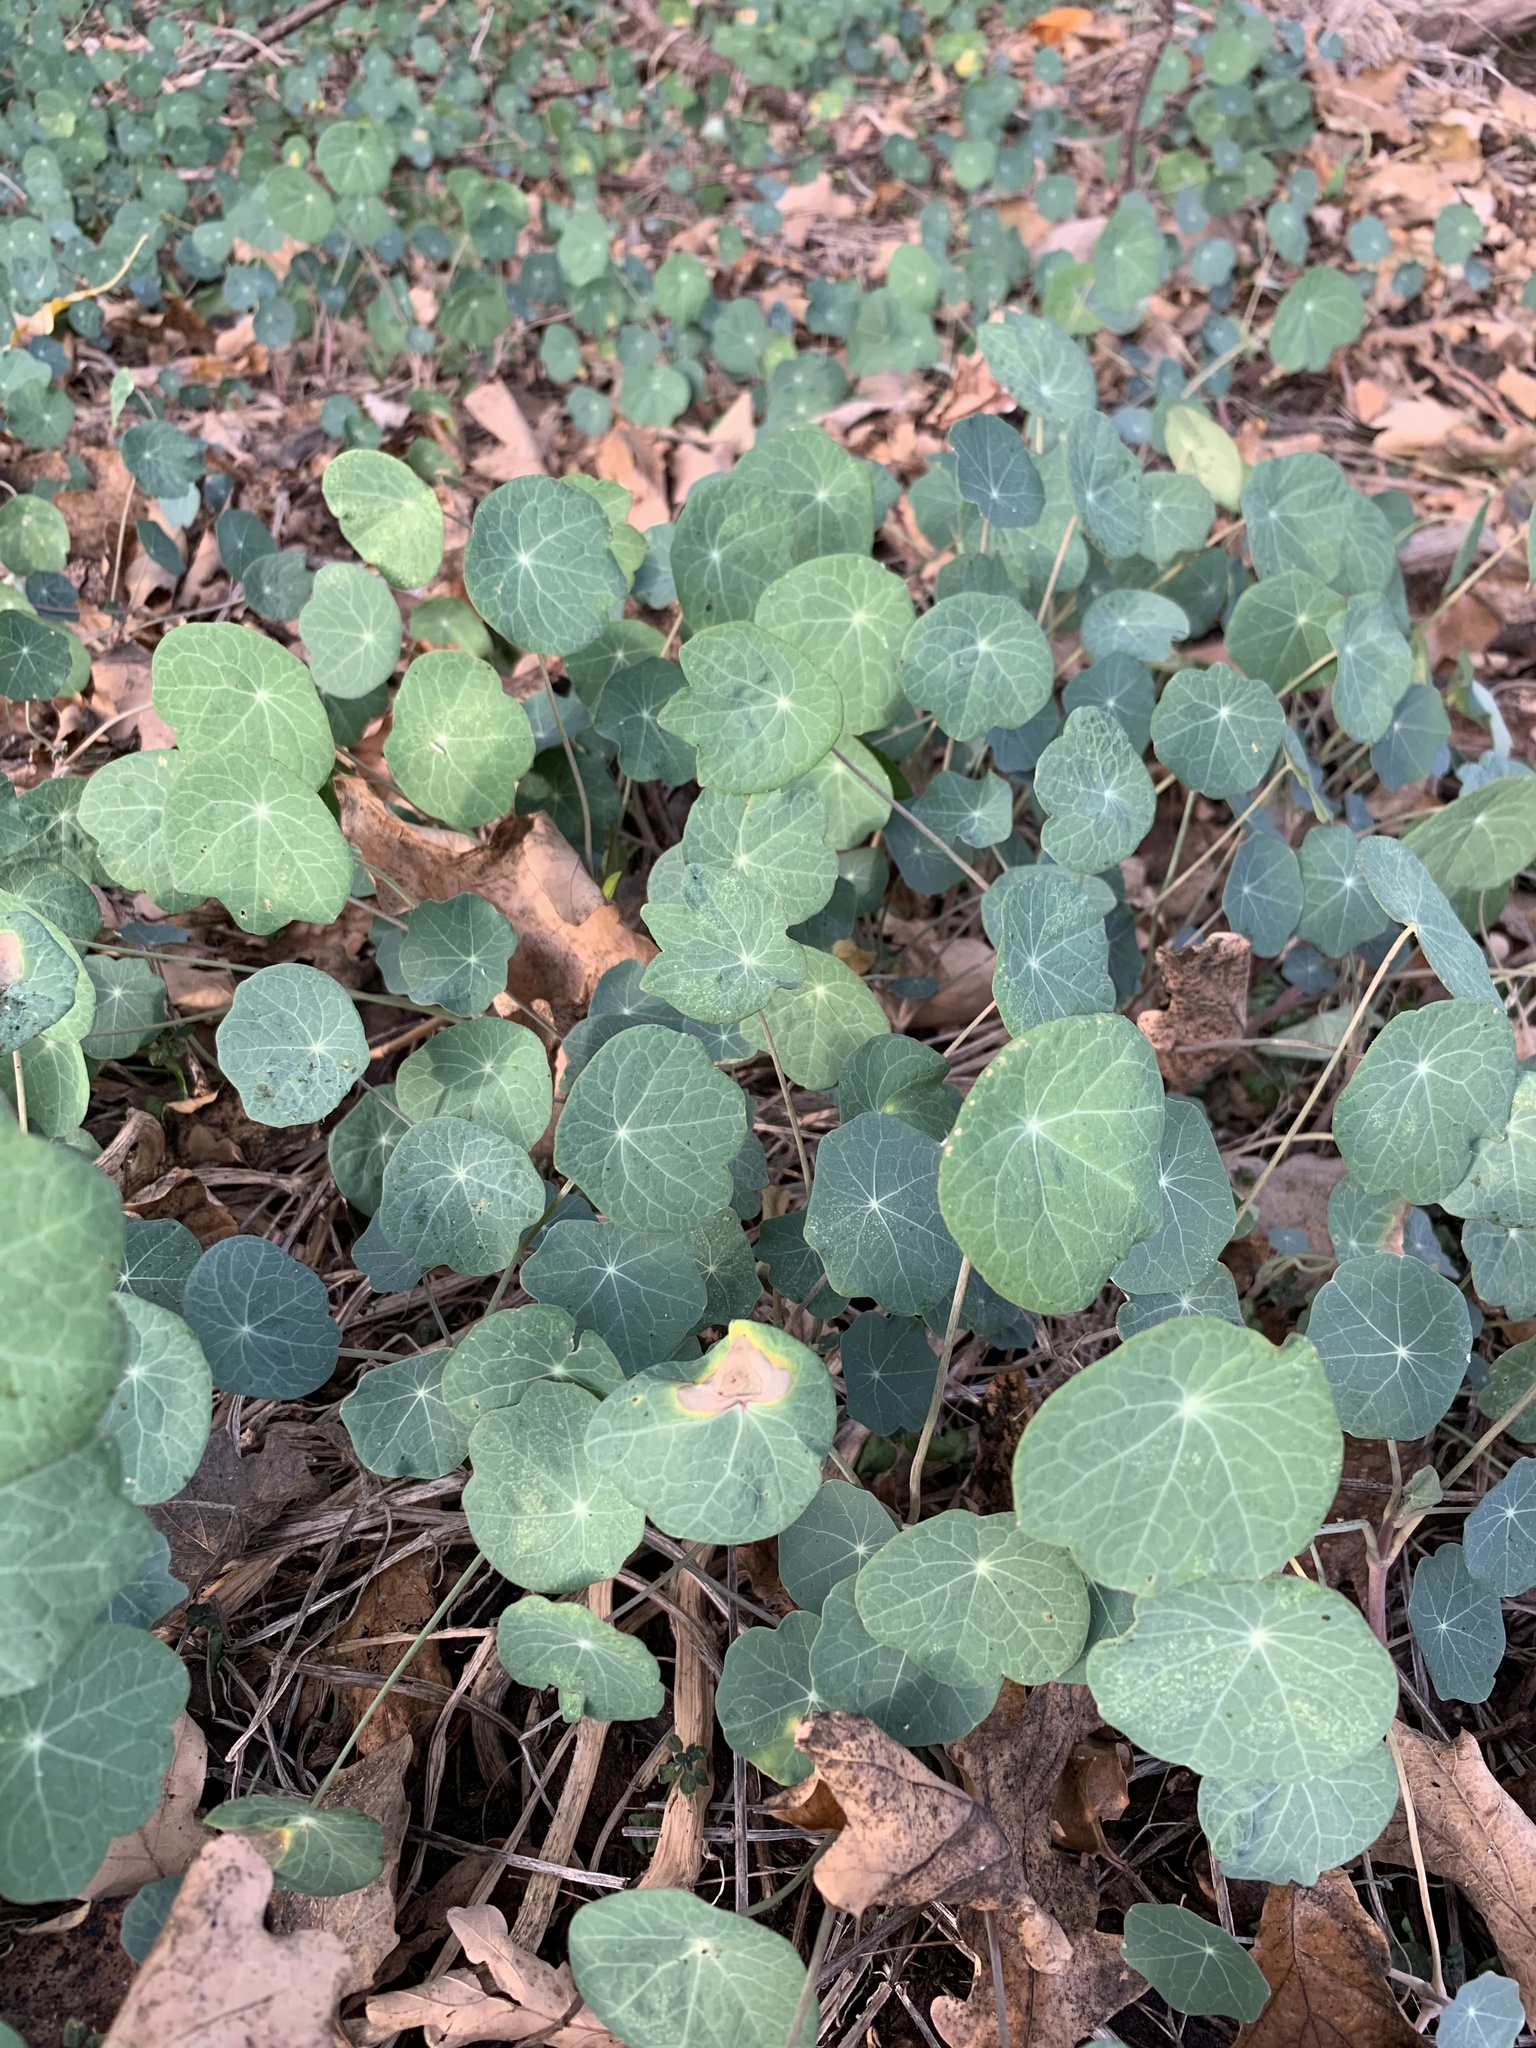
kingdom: Plantae
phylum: Tracheophyta
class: Magnoliopsida
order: Brassicales
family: Tropaeolaceae
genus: Tropaeolum
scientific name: Tropaeolum majus
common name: Nasturtium
